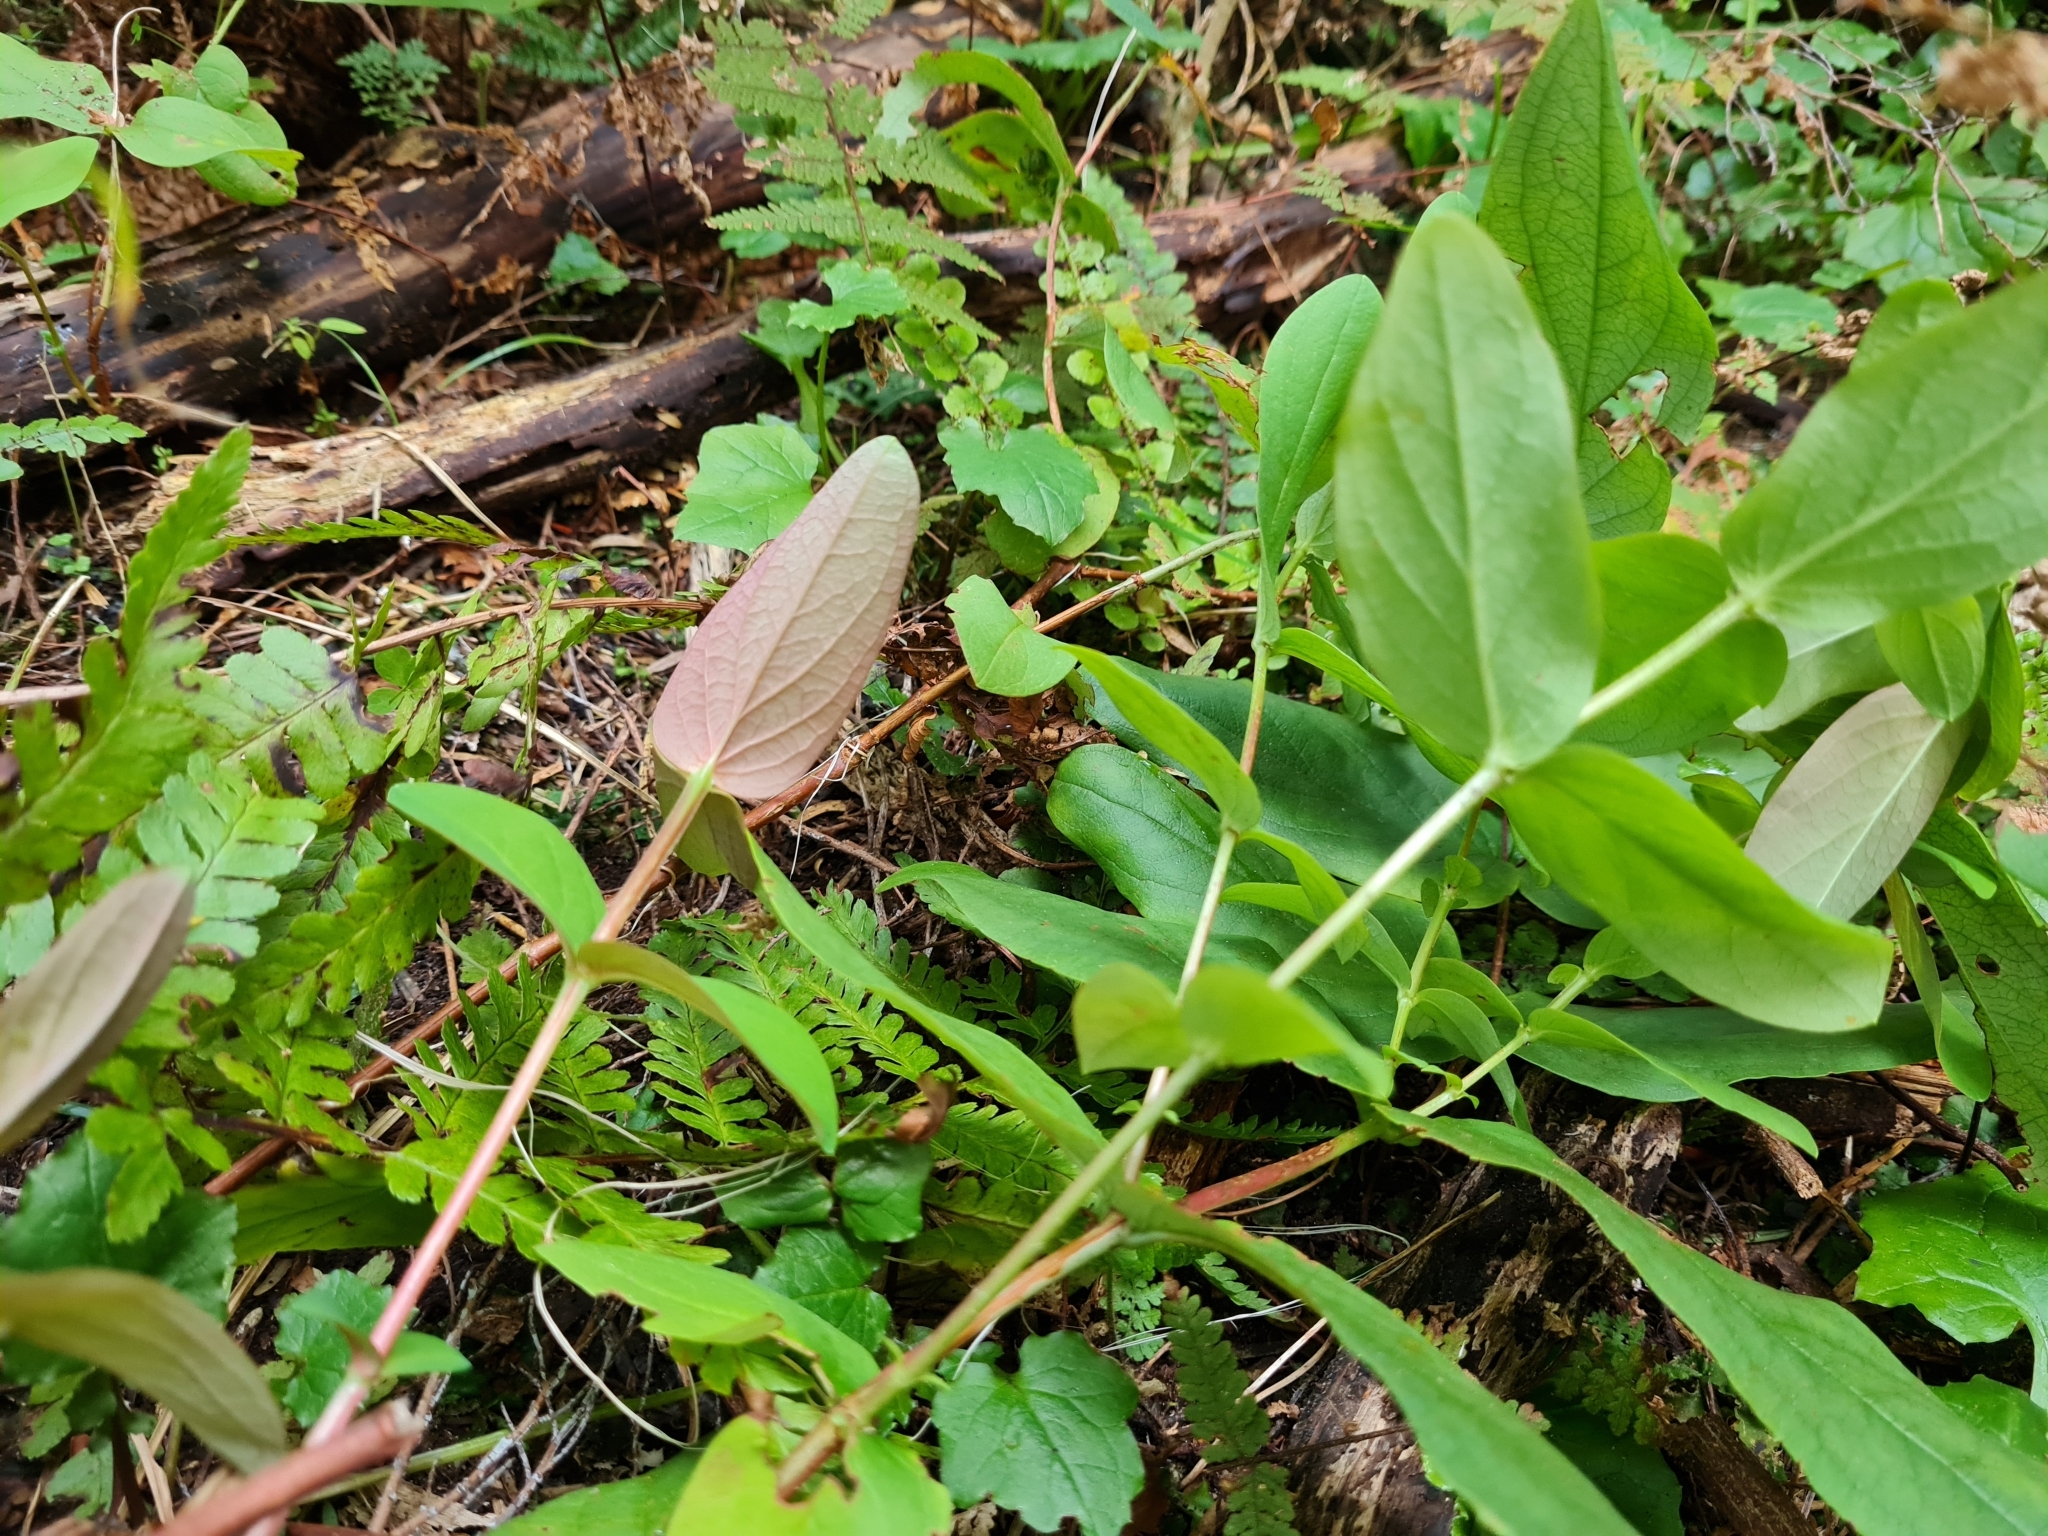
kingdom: Plantae
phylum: Tracheophyta
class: Magnoliopsida
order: Malpighiales
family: Hypericaceae
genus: Hypericum
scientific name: Hypericum androsaemum
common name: Sweet-amber
